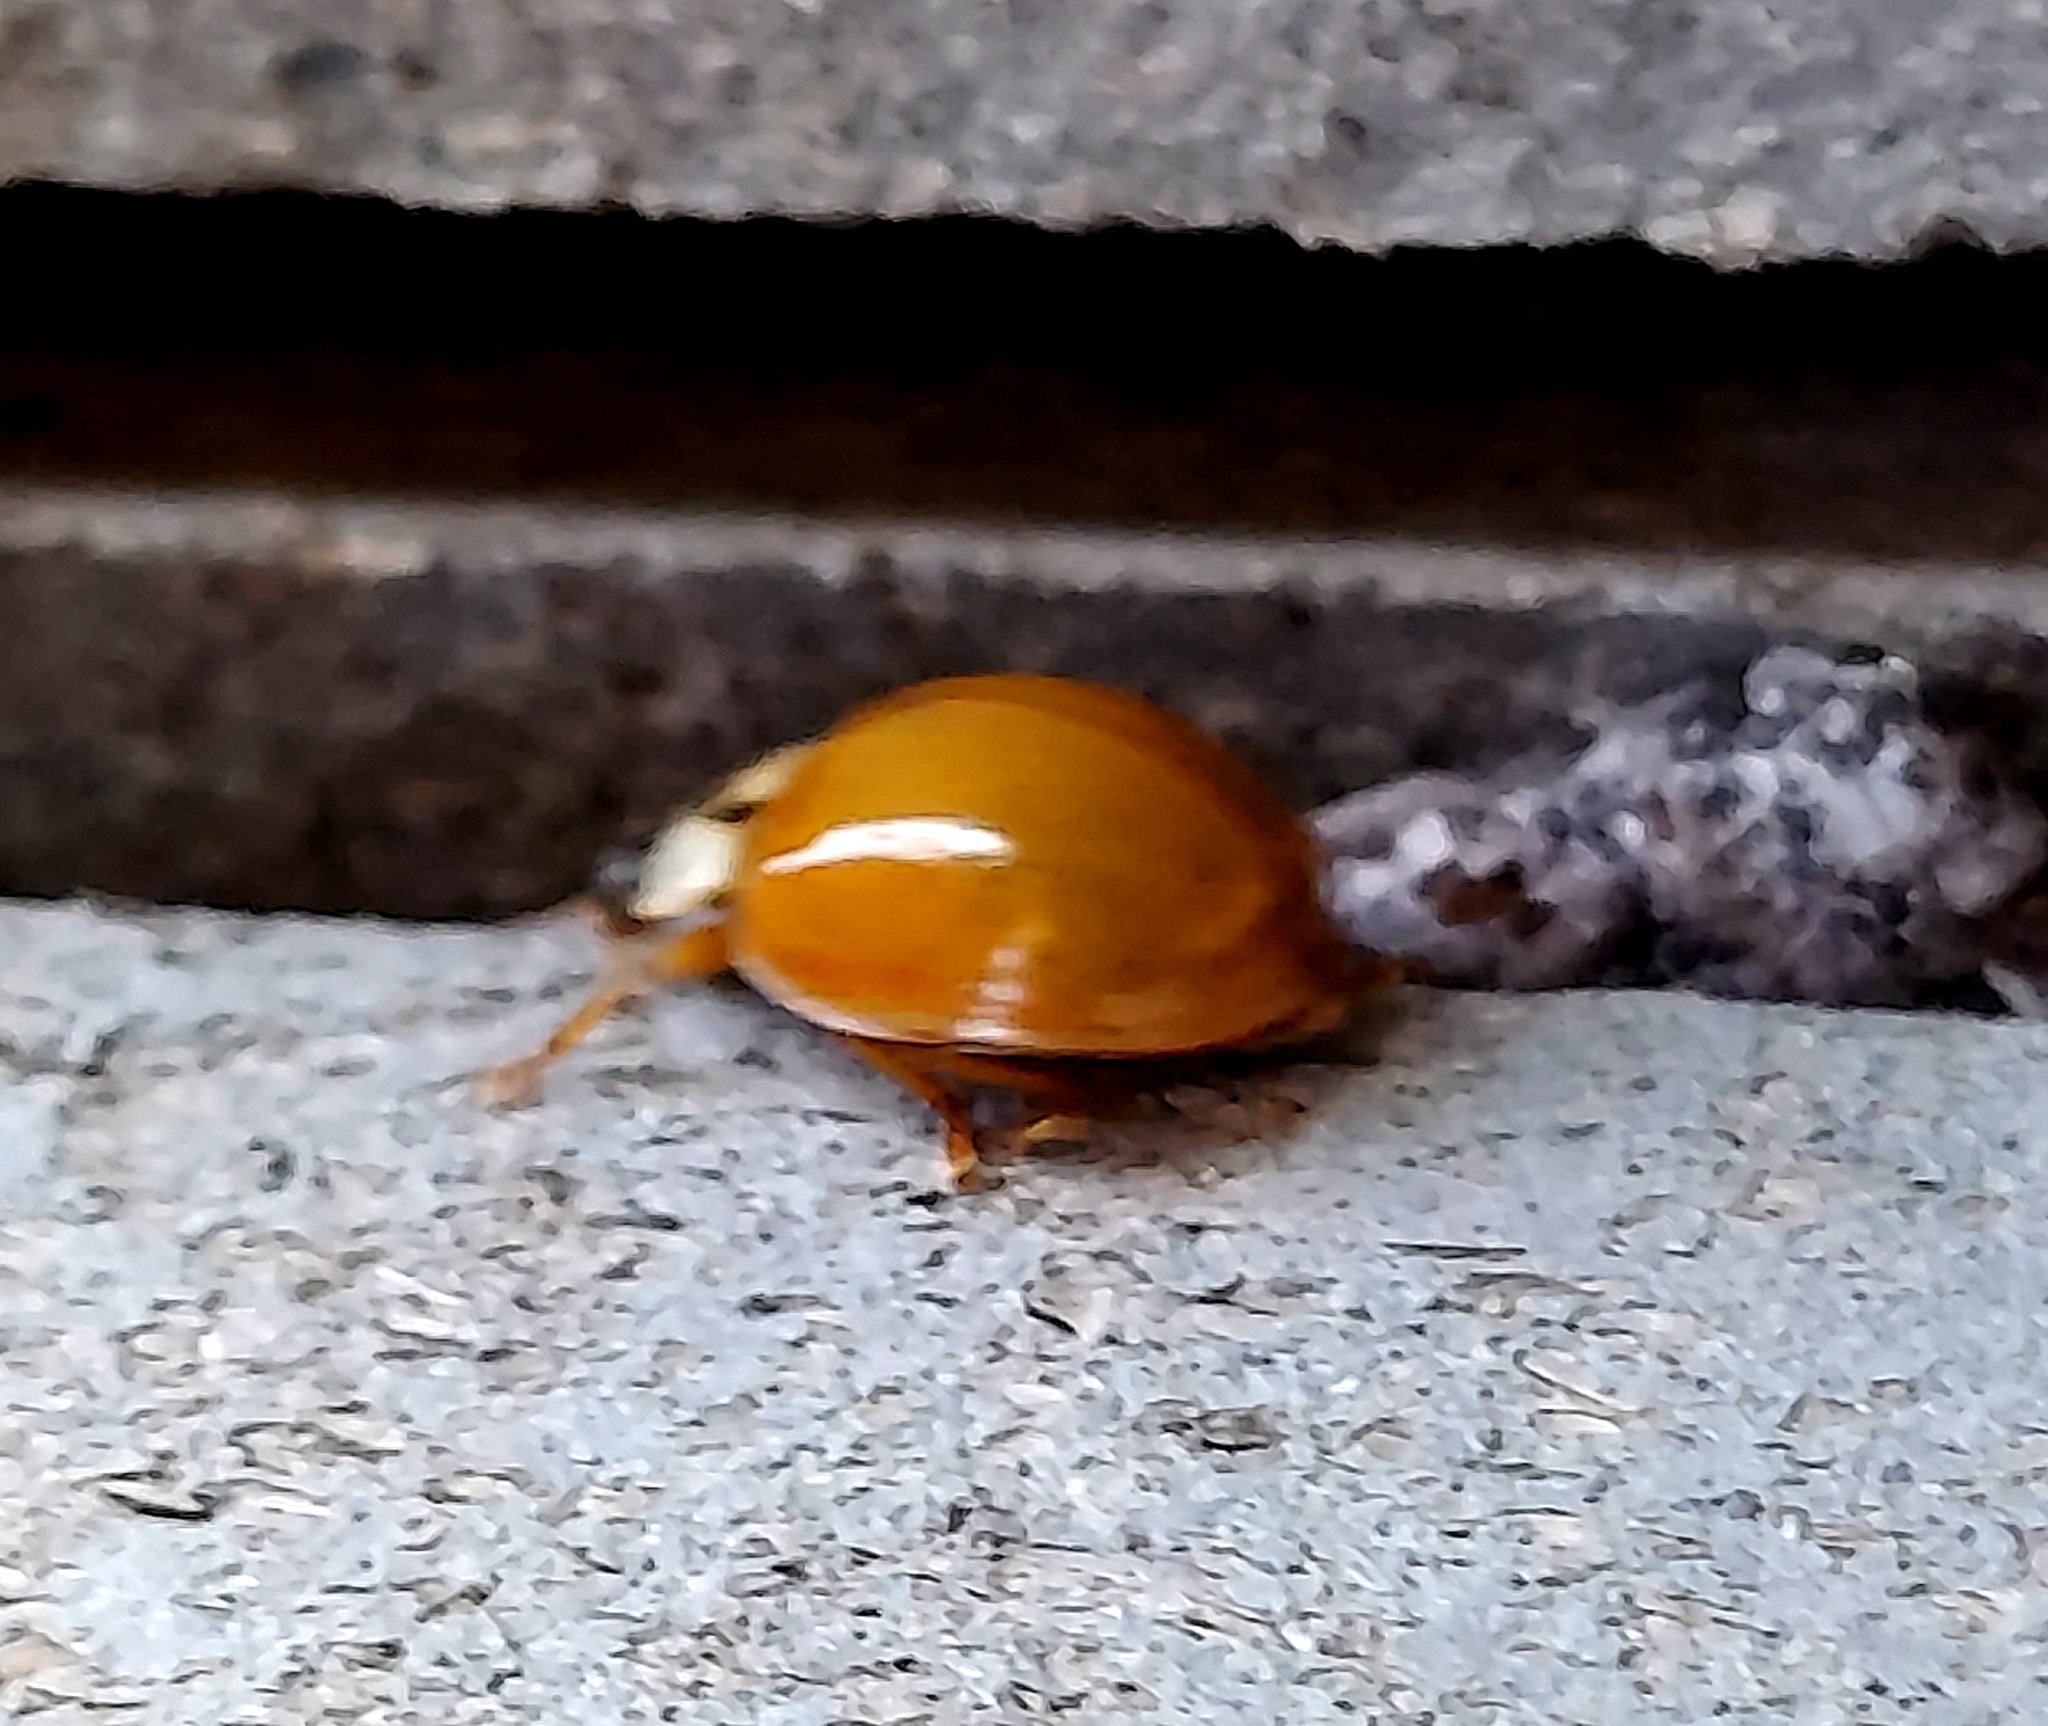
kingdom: Animalia
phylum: Arthropoda
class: Insecta
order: Coleoptera
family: Coccinellidae
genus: Harmonia
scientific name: Harmonia axyridis
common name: Harlequin ladybird
